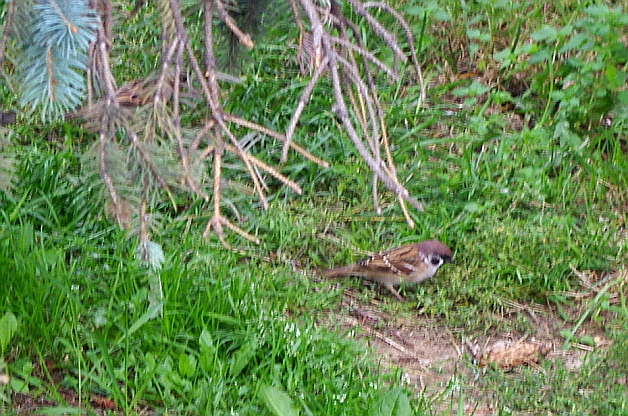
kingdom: Animalia
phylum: Chordata
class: Aves
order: Passeriformes
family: Passeridae
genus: Passer
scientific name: Passer montanus
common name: Eurasian tree sparrow
